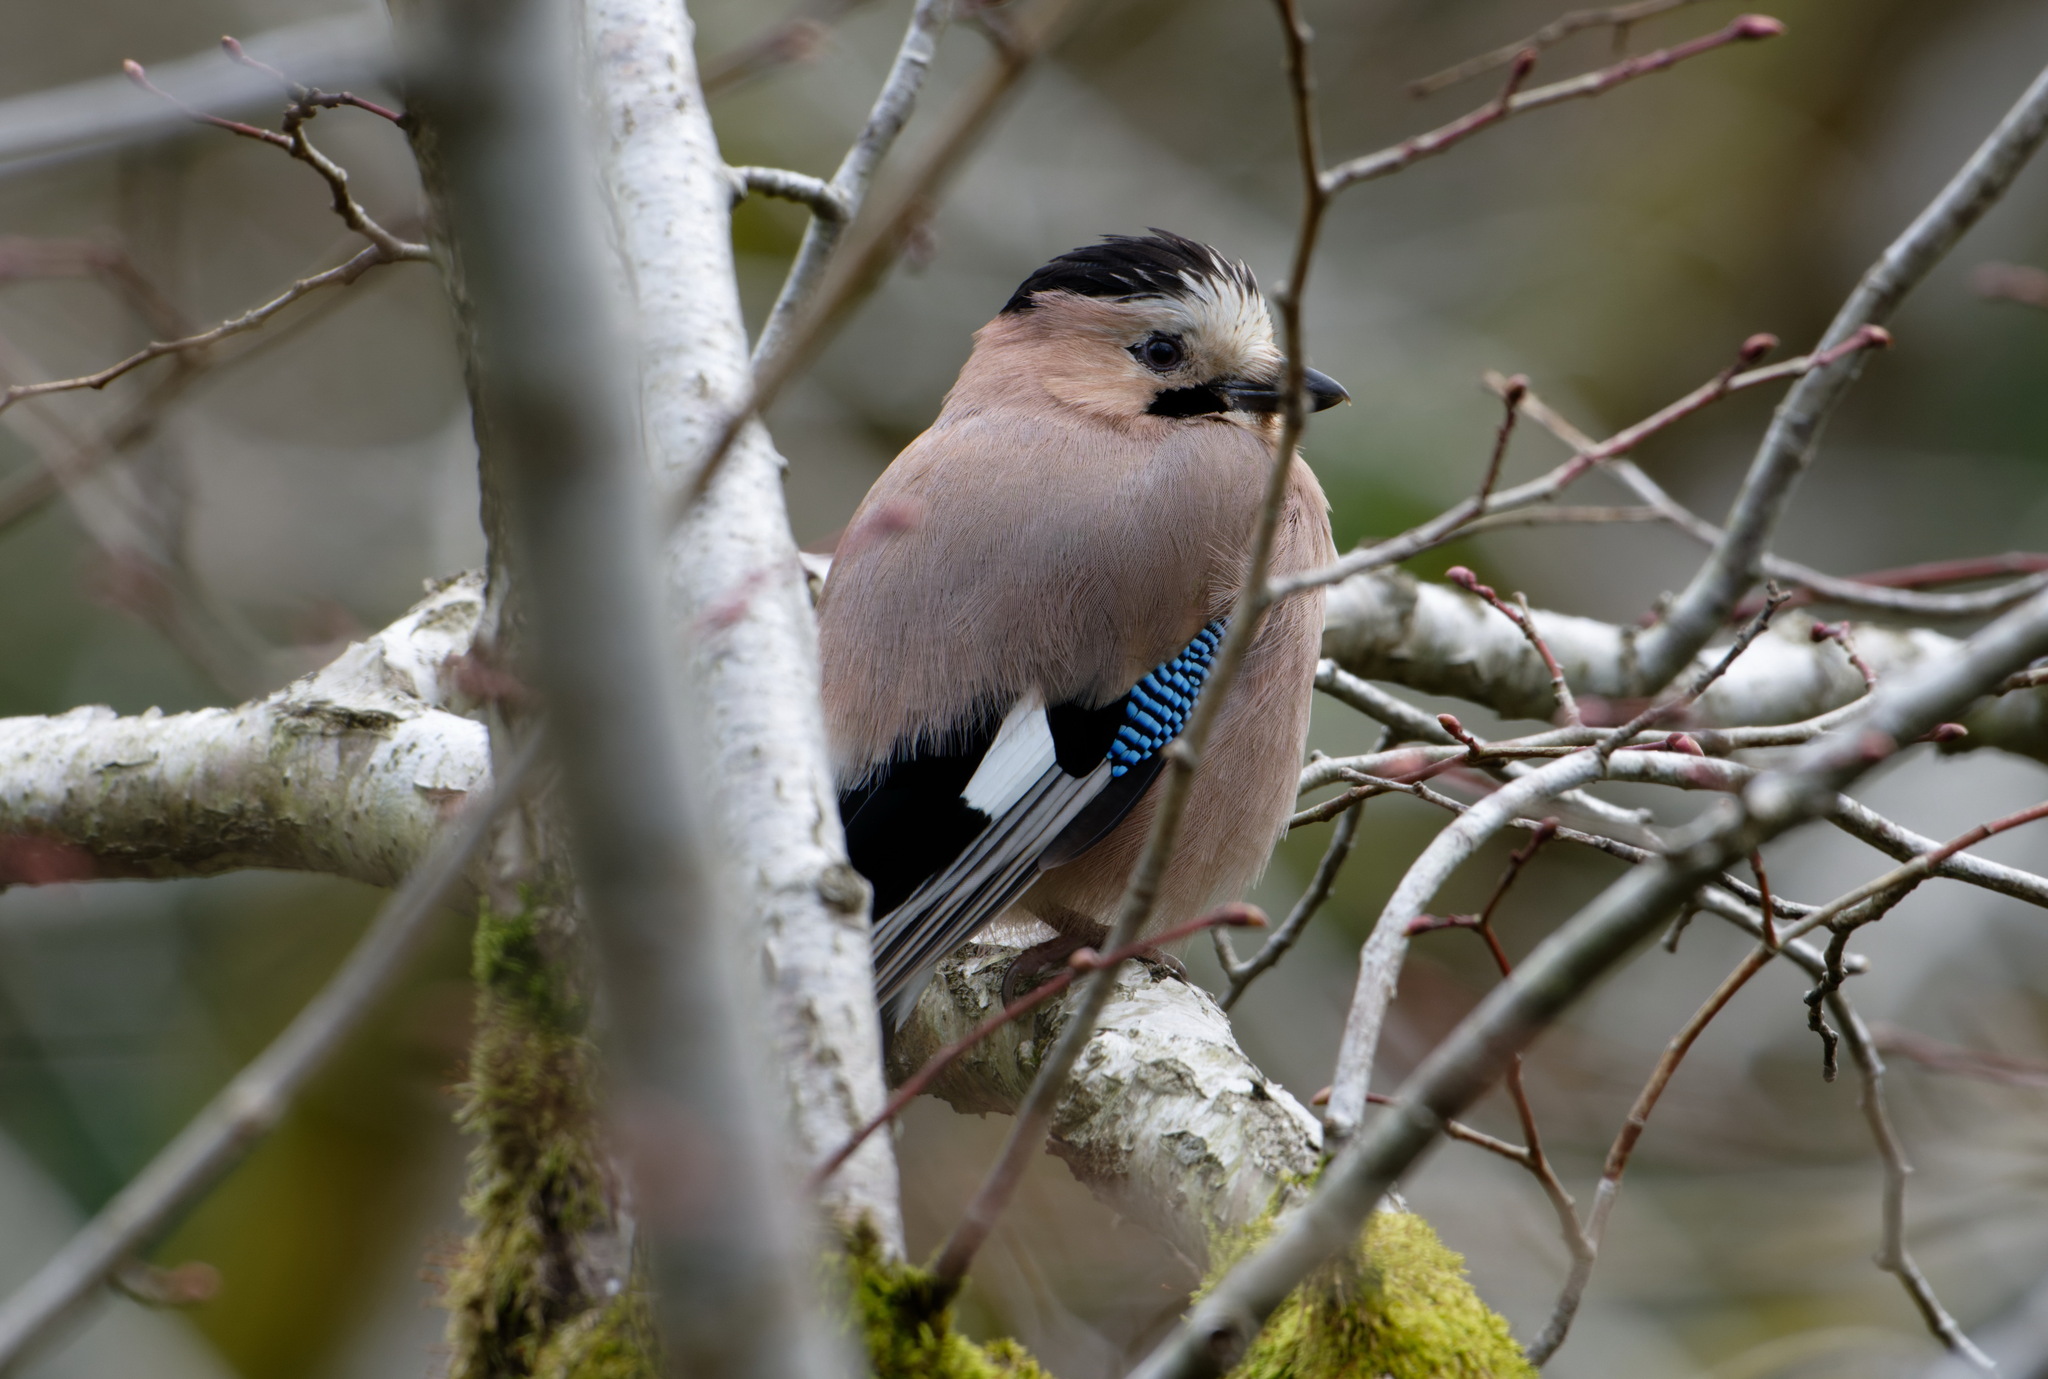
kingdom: Animalia
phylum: Chordata
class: Aves
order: Passeriformes
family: Corvidae
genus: Garrulus
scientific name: Garrulus glandarius
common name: Eurasian jay
